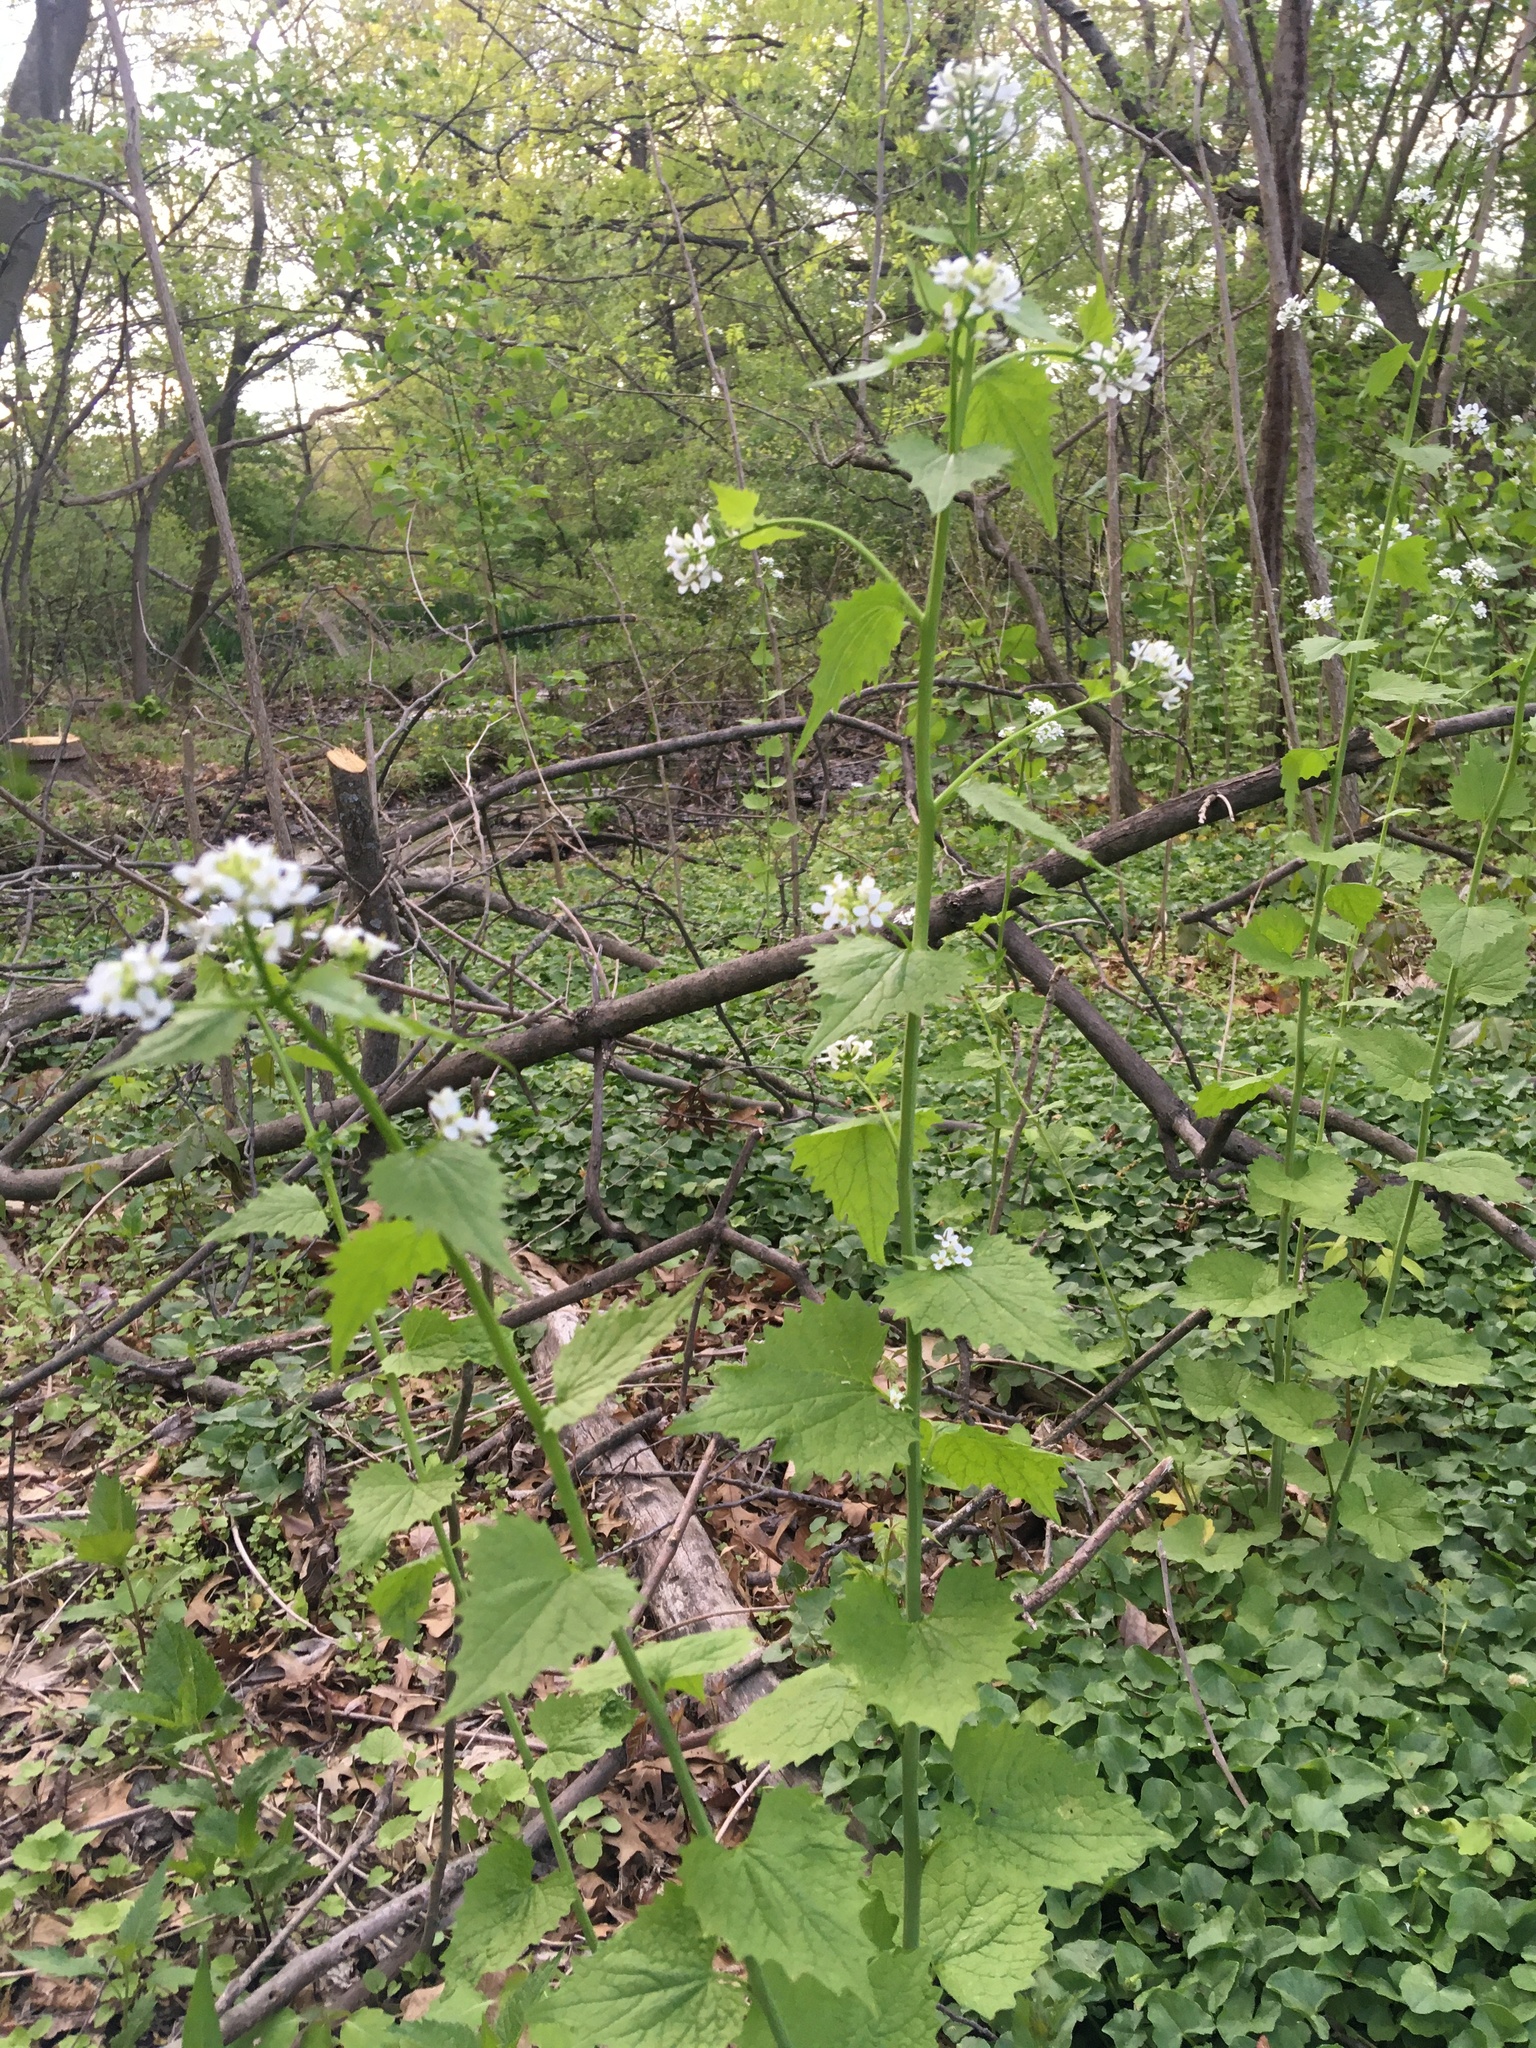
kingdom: Plantae
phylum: Tracheophyta
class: Magnoliopsida
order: Brassicales
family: Brassicaceae
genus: Alliaria
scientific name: Alliaria petiolata
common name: Garlic mustard
